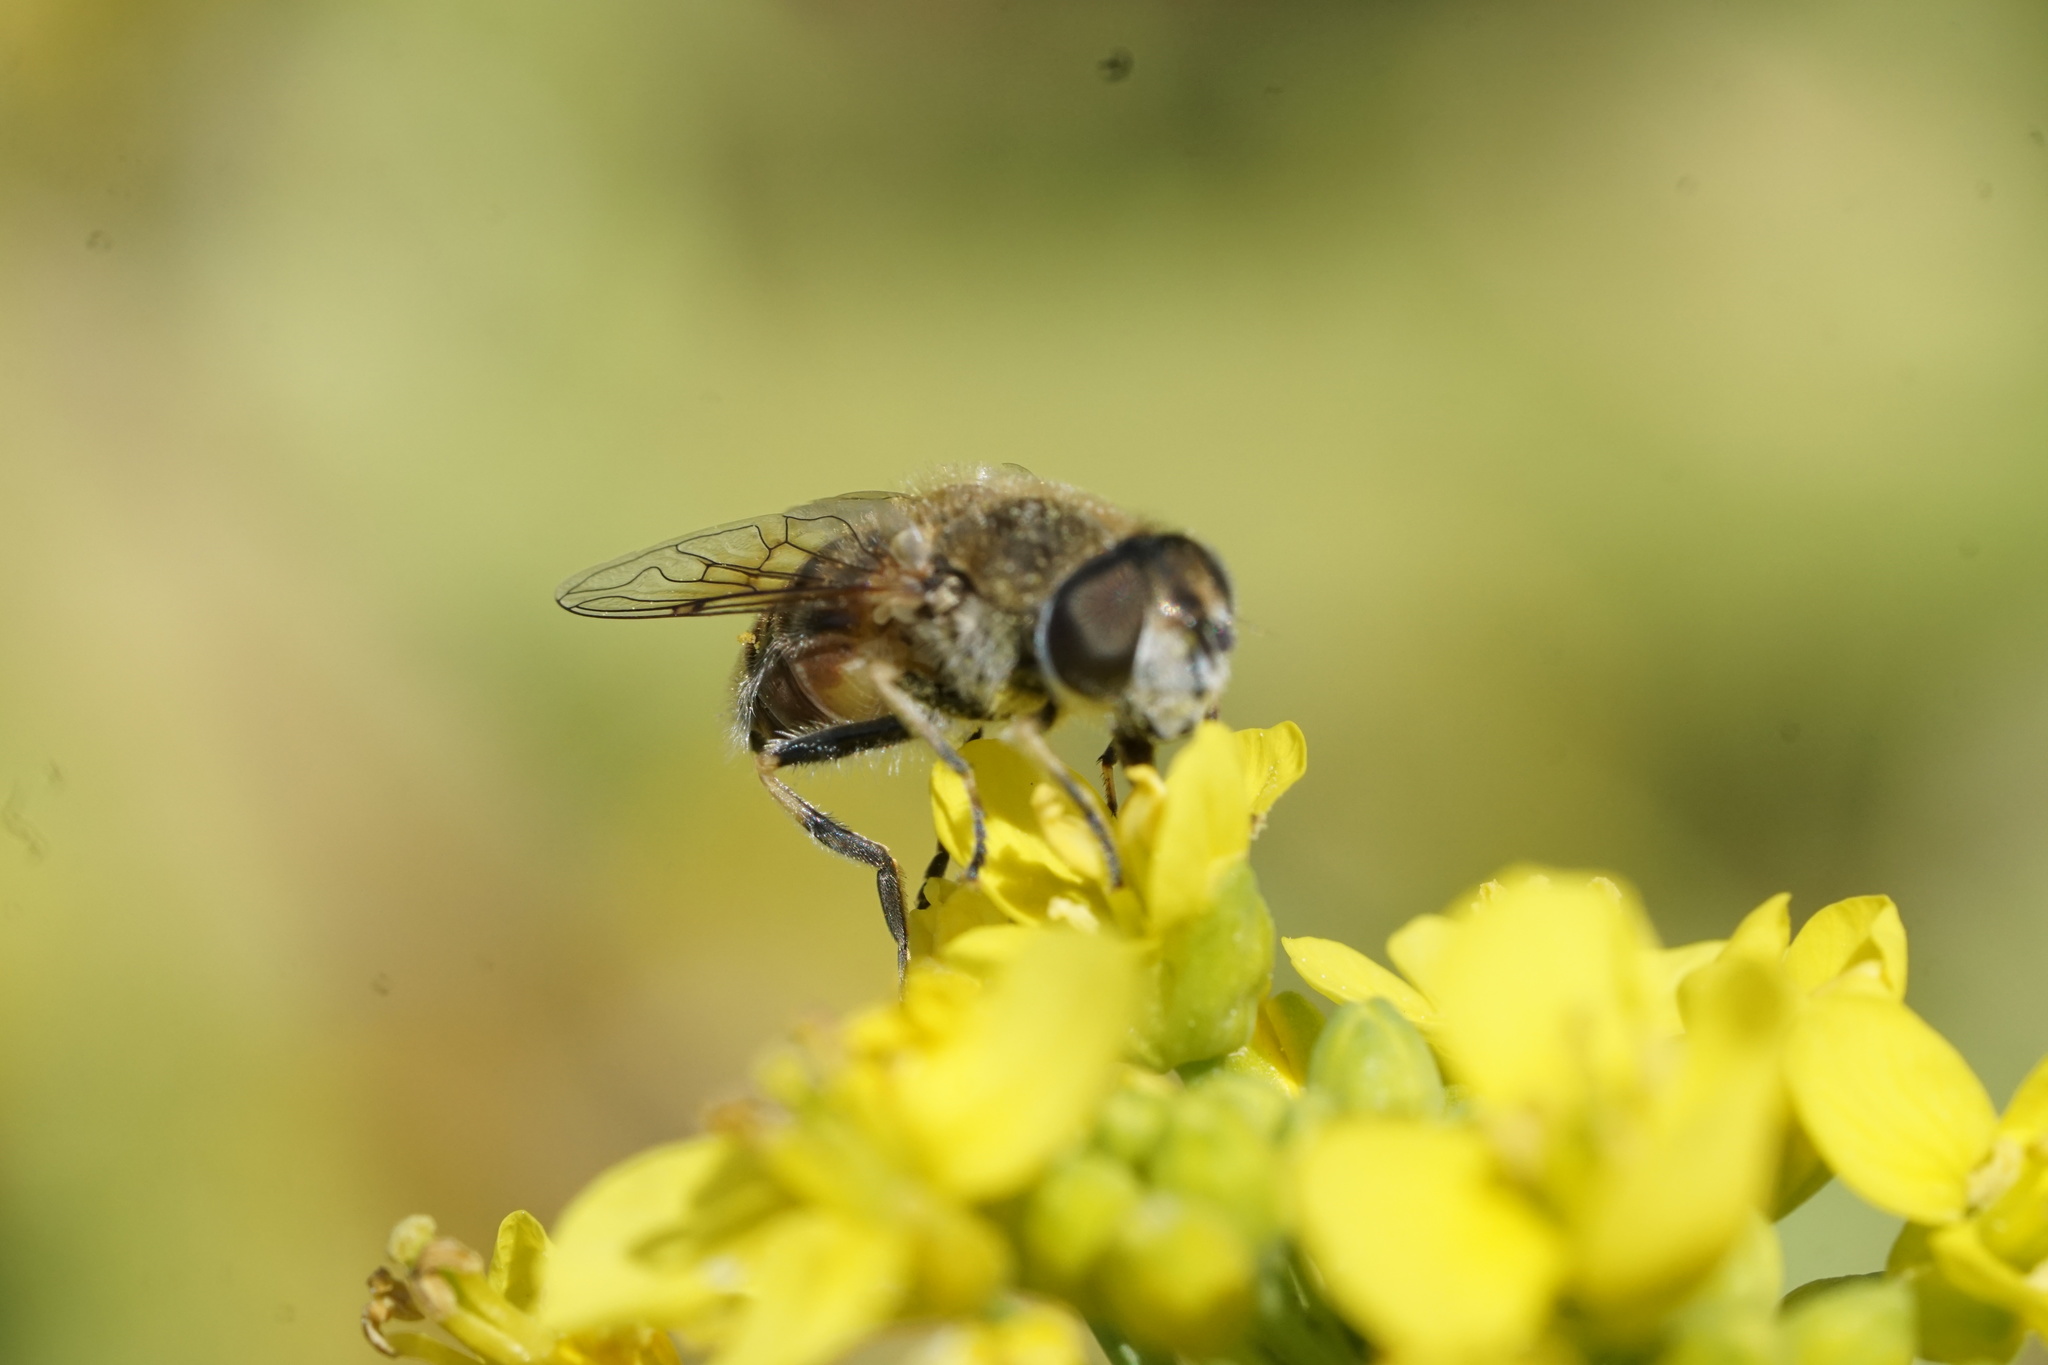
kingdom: Animalia
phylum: Arthropoda
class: Insecta
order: Diptera
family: Syrphidae
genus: Eristalis
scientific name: Eristalis arbustorum
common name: Hover fly
